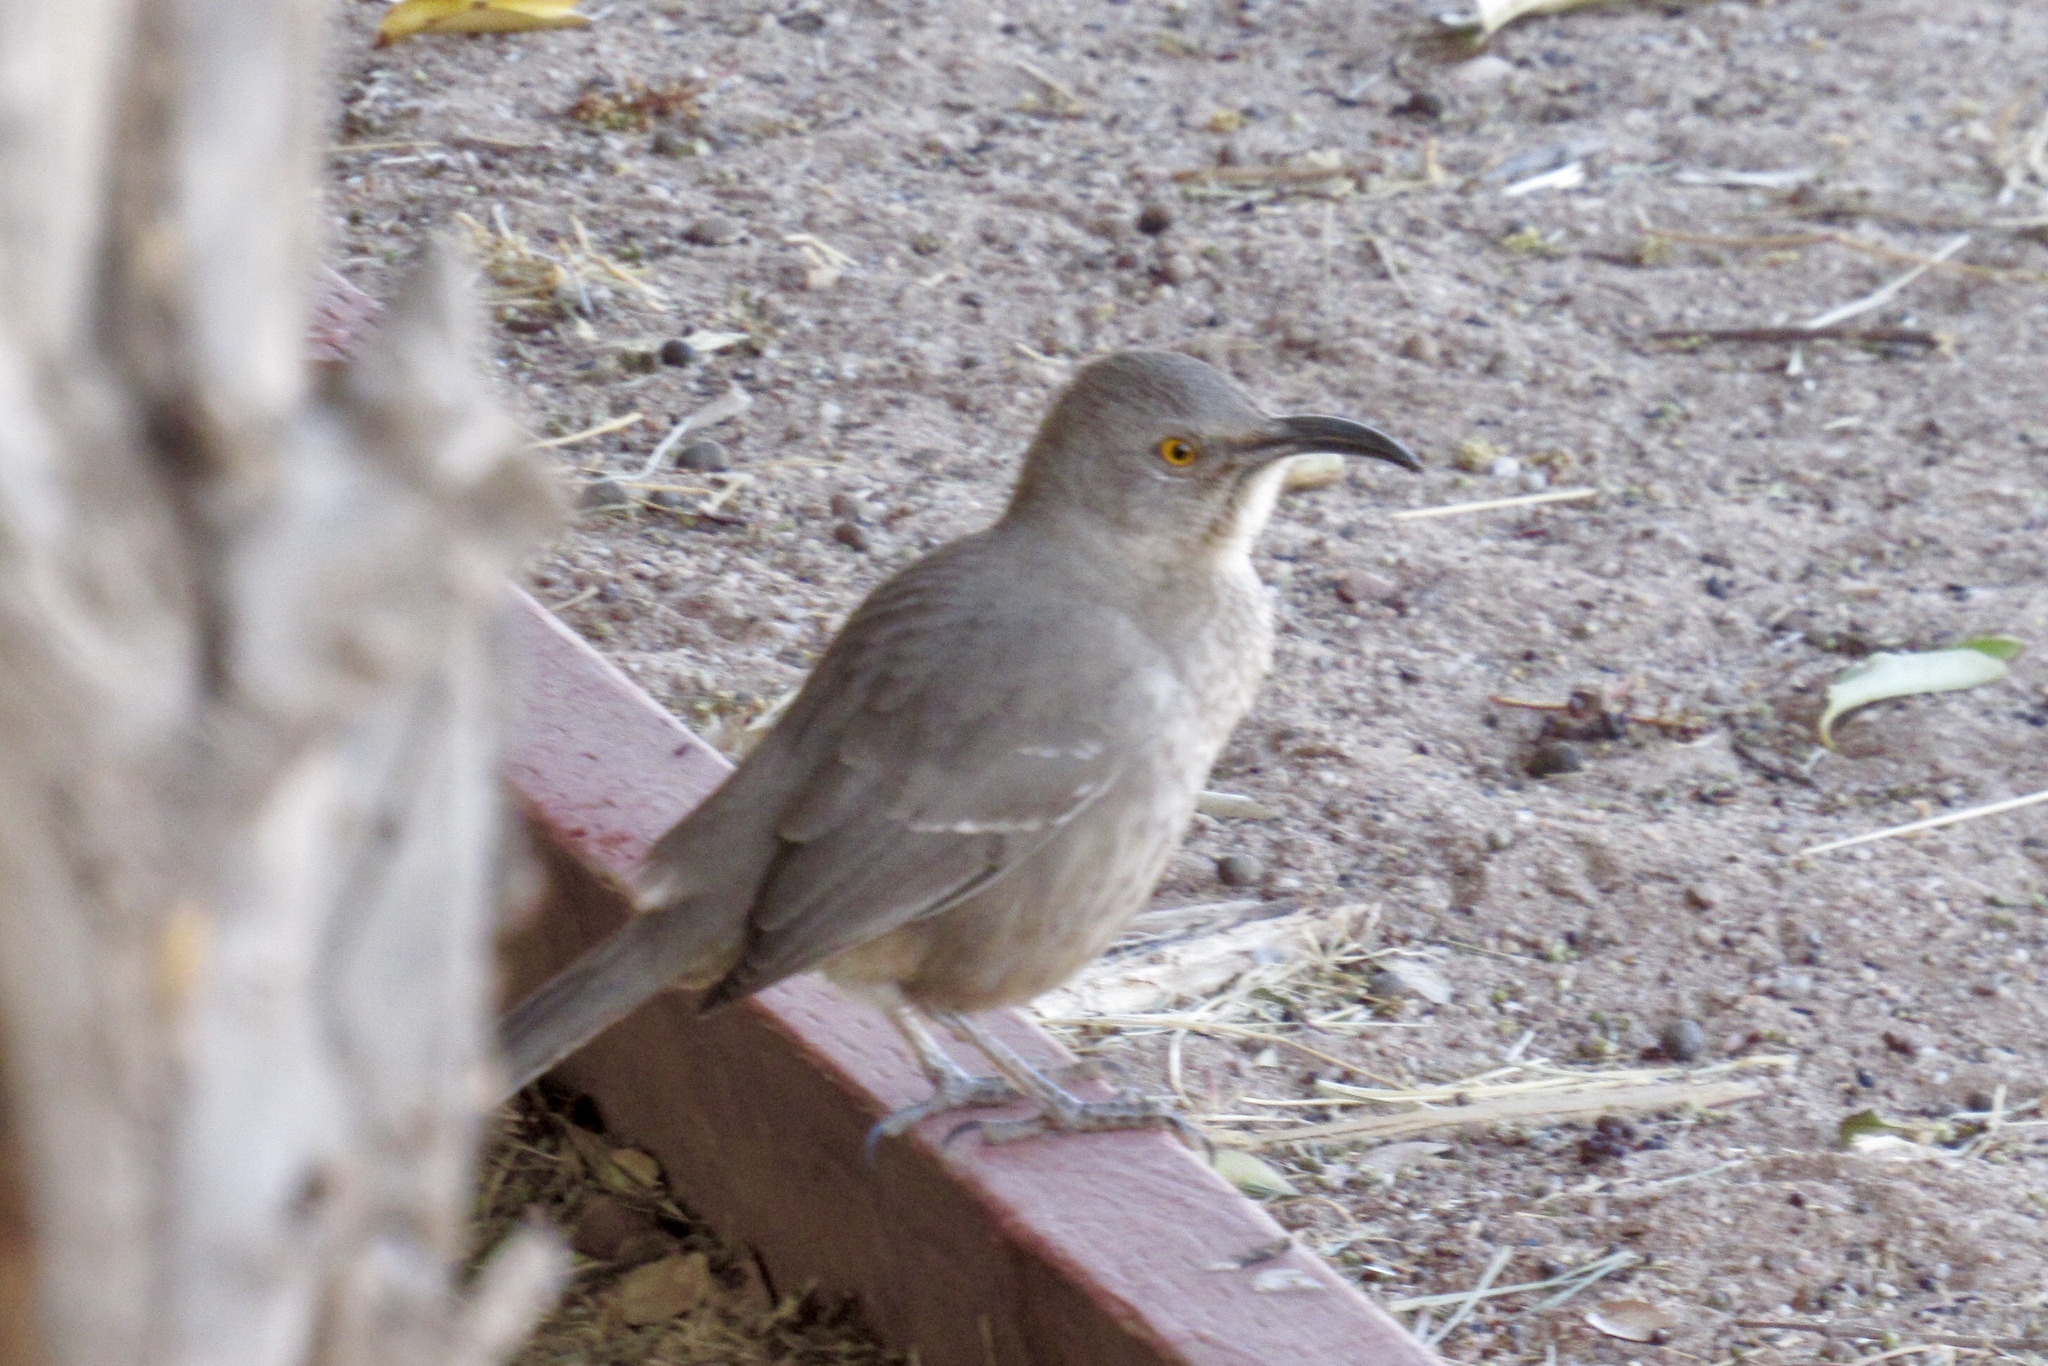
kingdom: Animalia
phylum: Chordata
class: Aves
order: Passeriformes
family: Mimidae
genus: Toxostoma
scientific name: Toxostoma curvirostre
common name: Curve-billed thrasher
